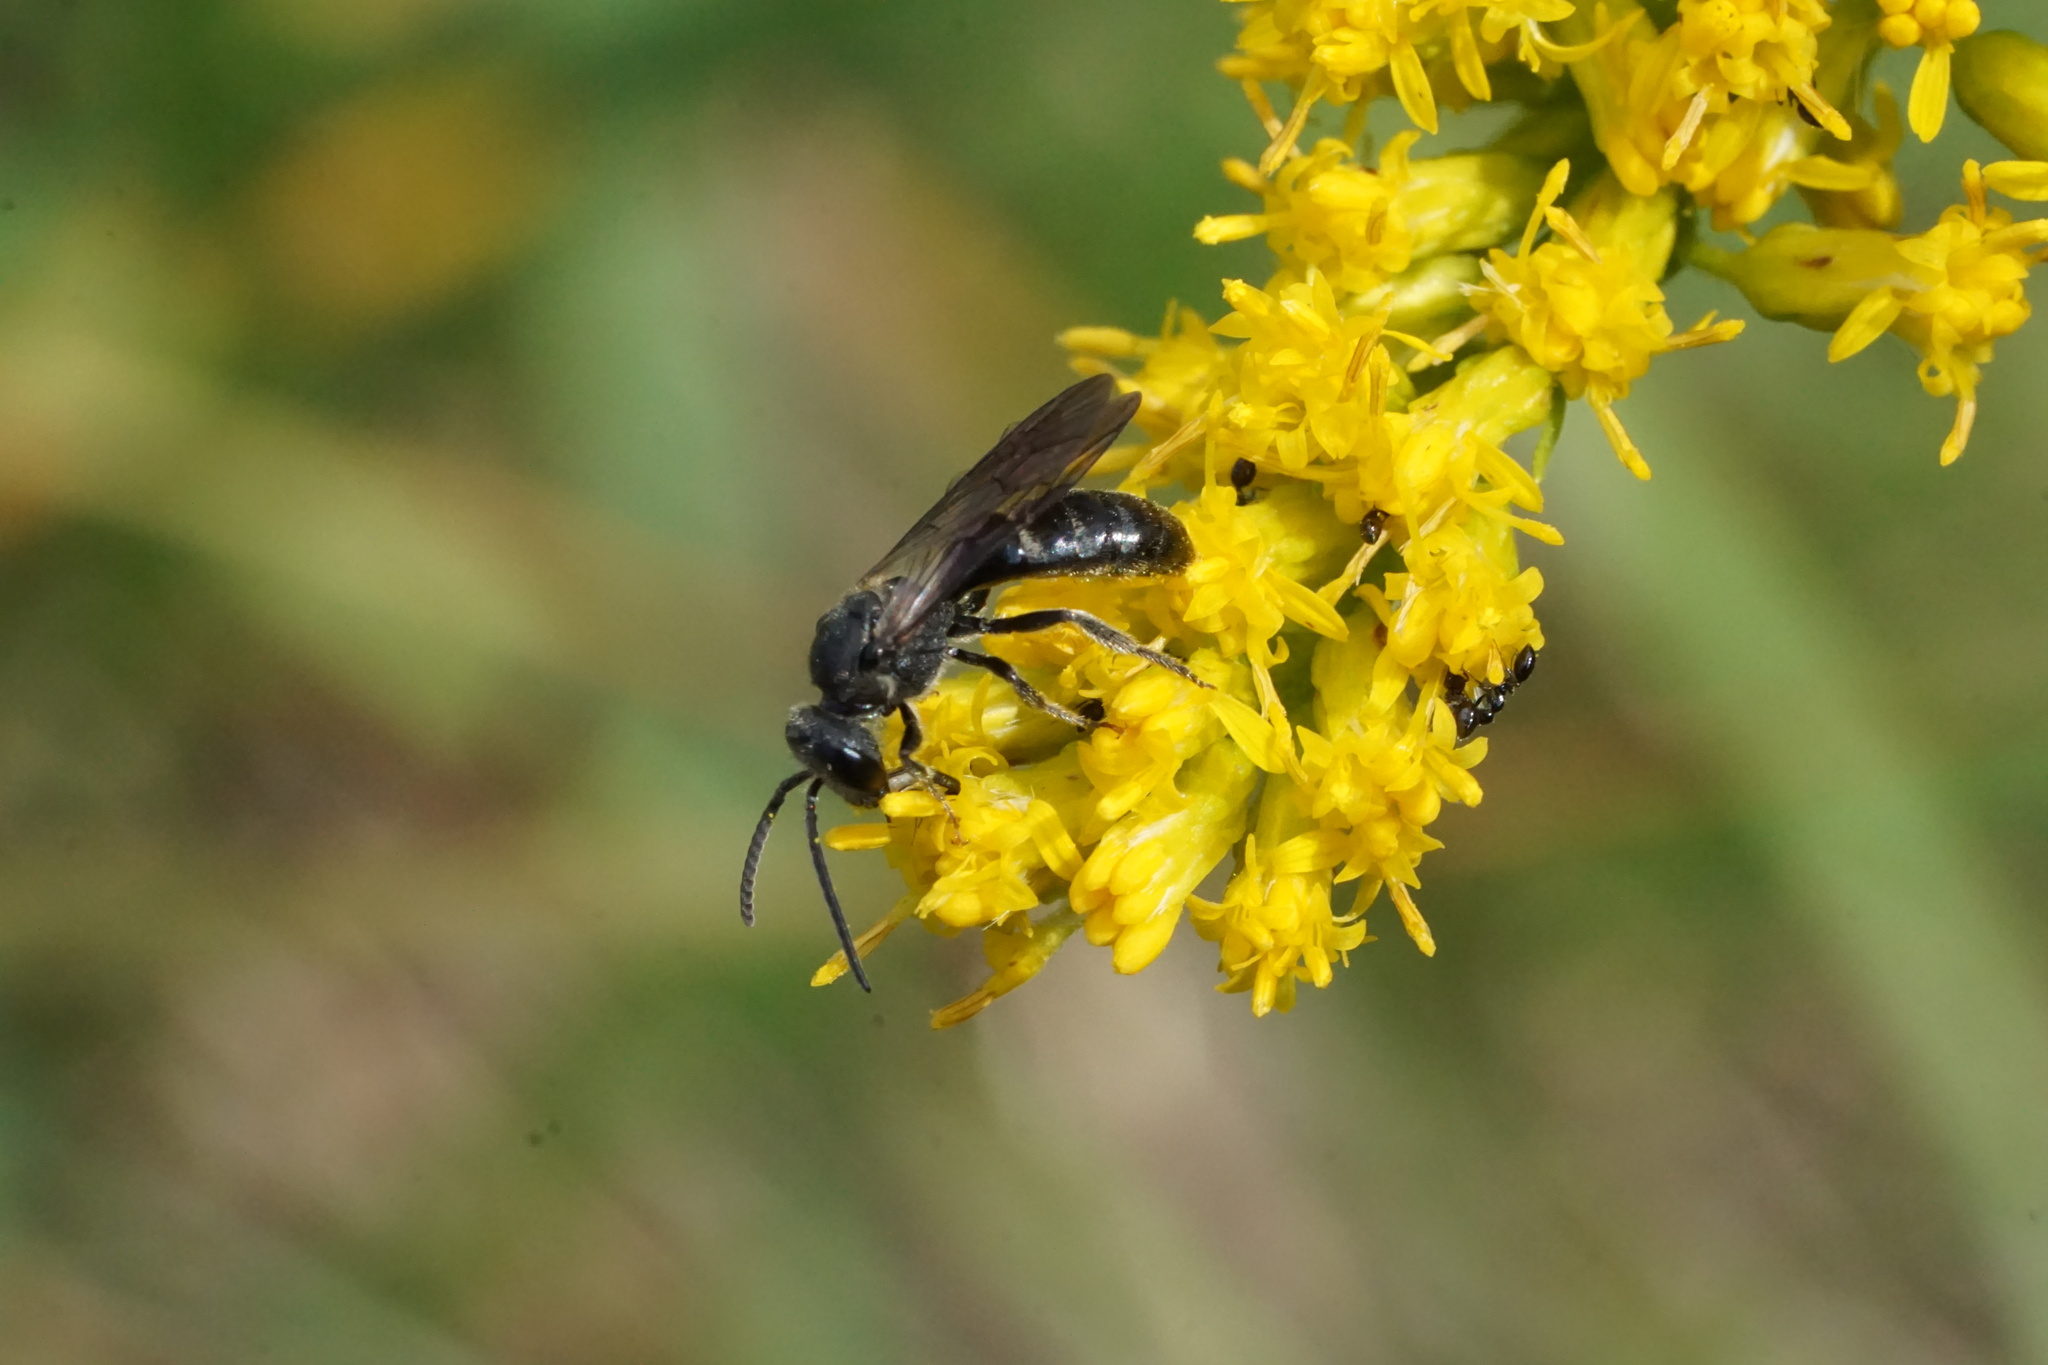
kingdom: Animalia
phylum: Arthropoda
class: Insecta
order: Hymenoptera
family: Halictidae
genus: Lasioglossum
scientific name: Lasioglossum fuscipenne
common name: Brown-winged sweat bee
